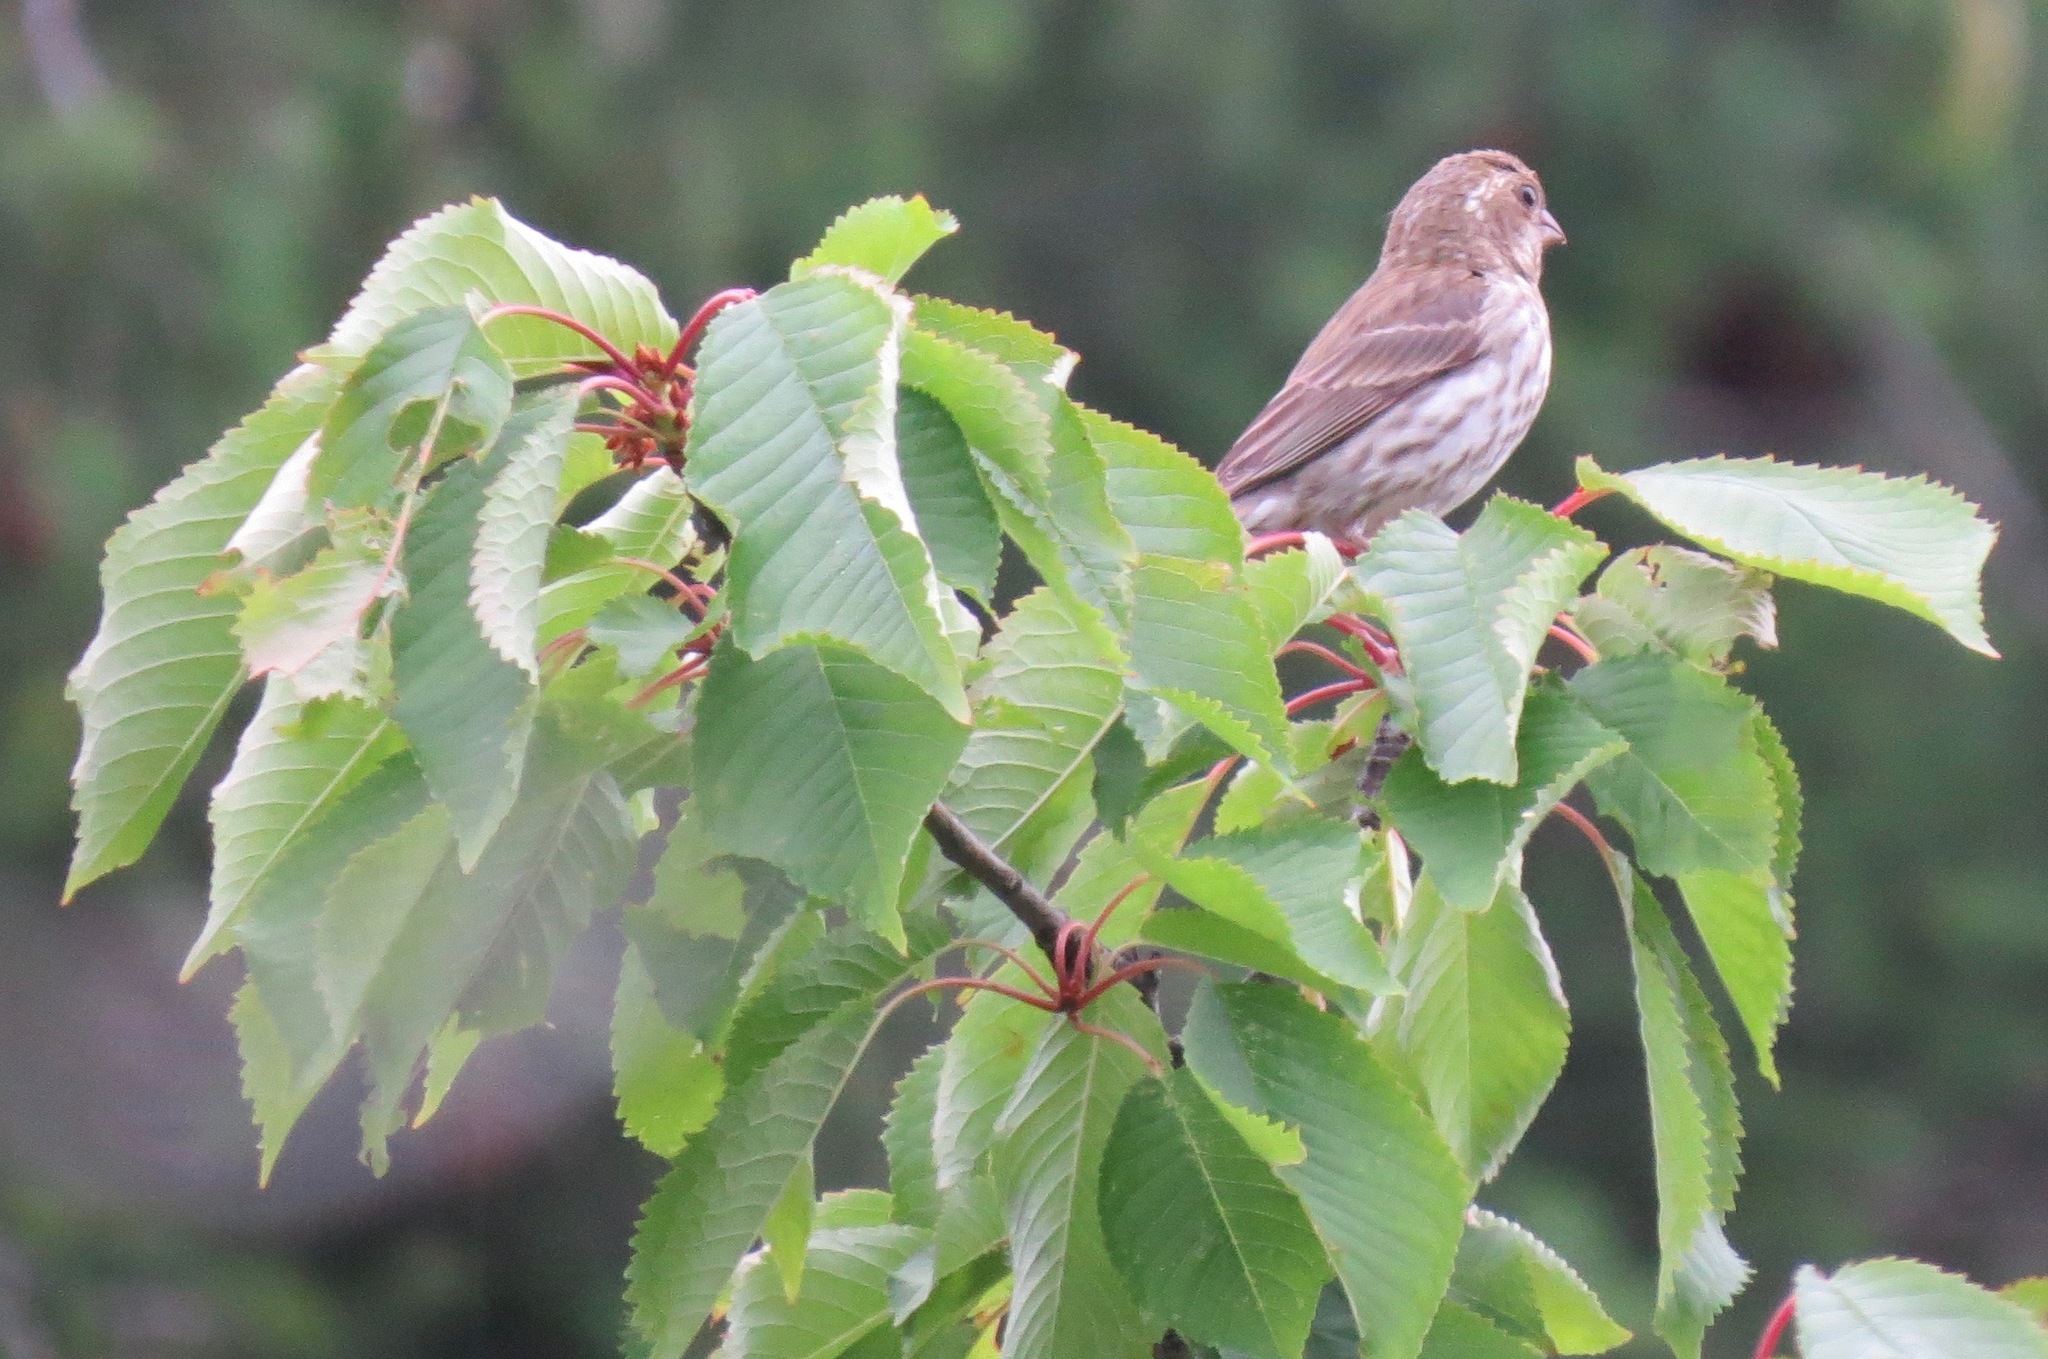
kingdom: Animalia
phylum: Chordata
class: Aves
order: Passeriformes
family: Fringillidae
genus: Haemorhous
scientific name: Haemorhous purpureus
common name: Purple finch
